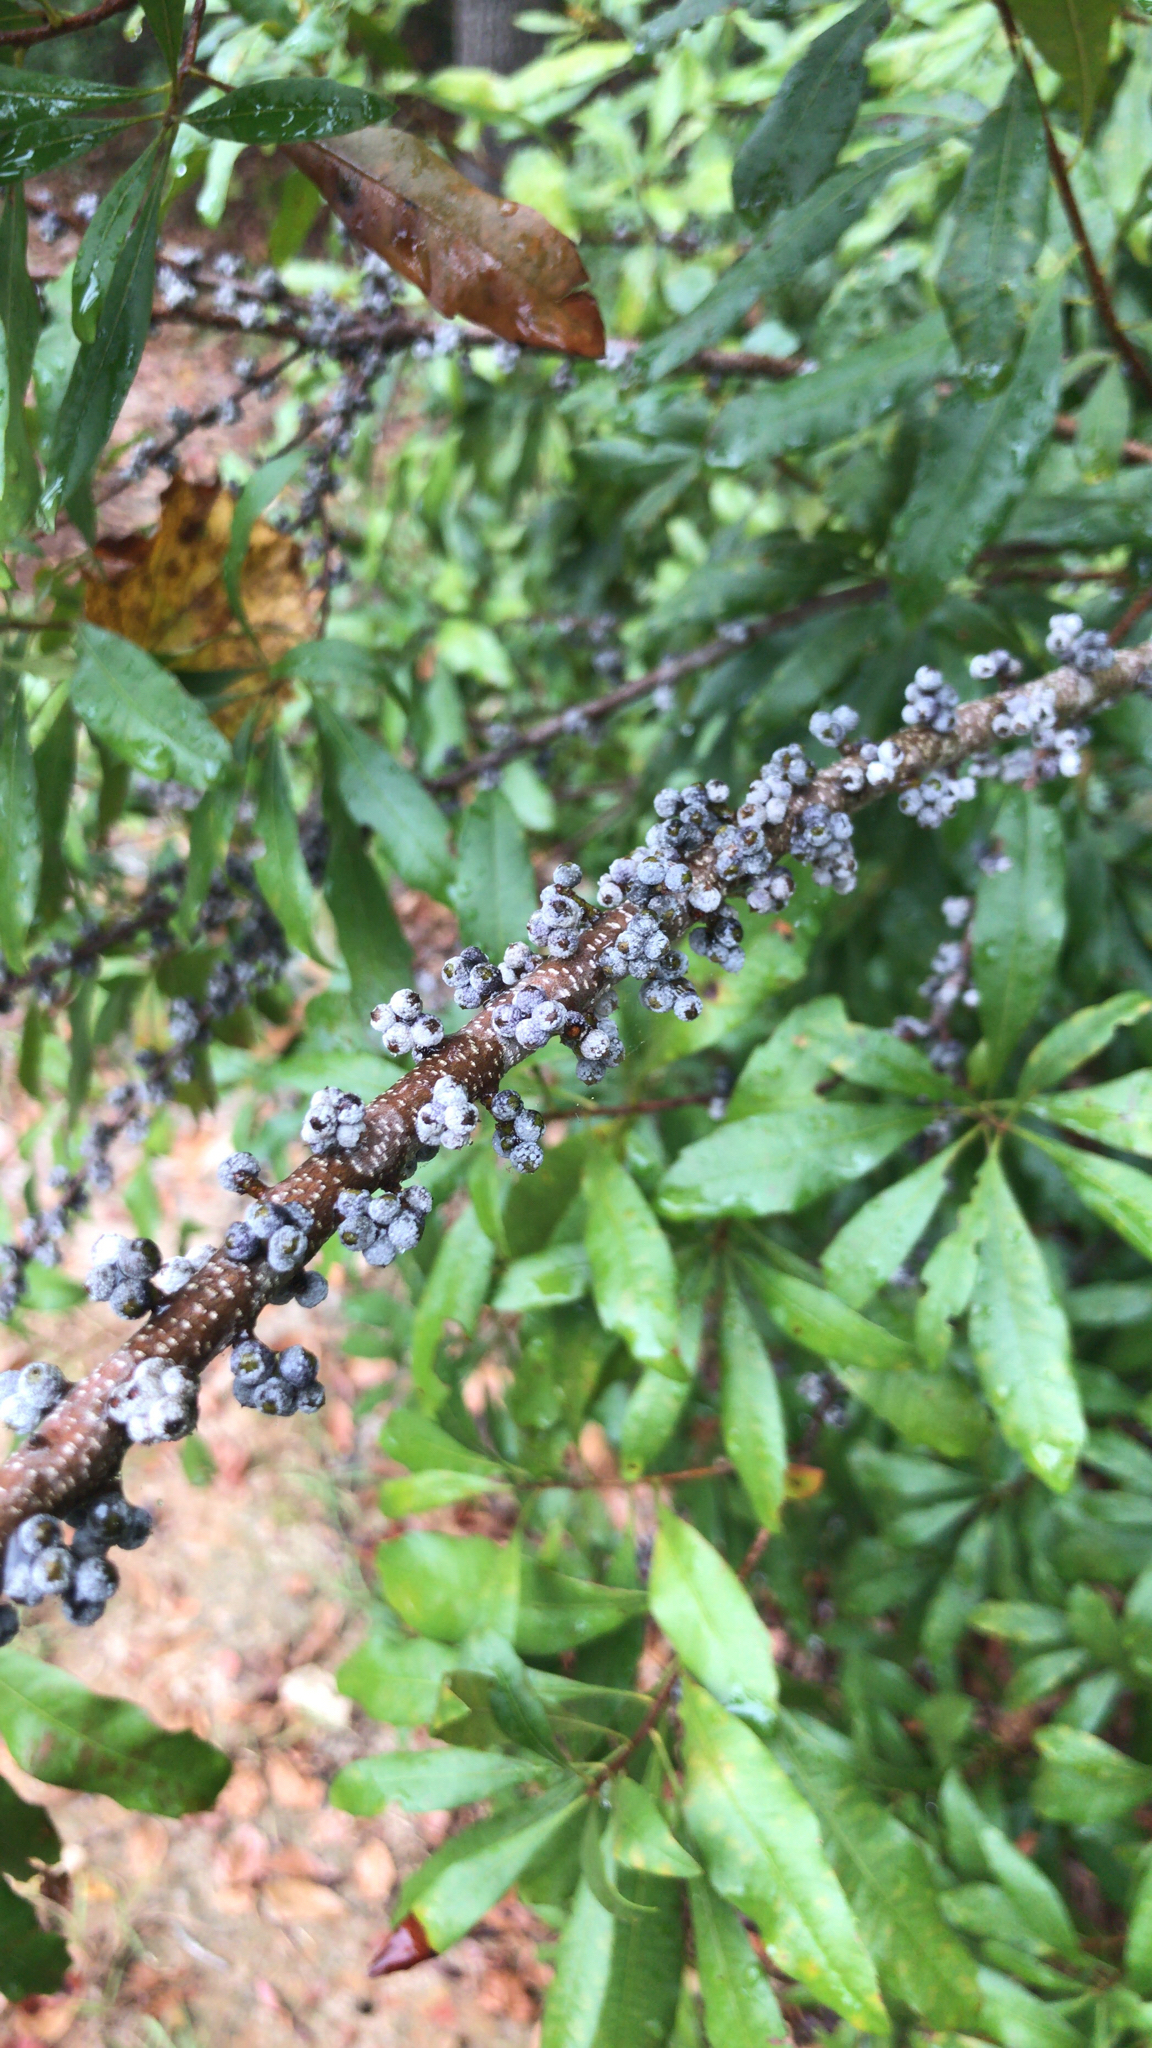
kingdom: Plantae
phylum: Tracheophyta
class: Magnoliopsida
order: Fagales
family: Myricaceae
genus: Morella
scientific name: Morella cerifera
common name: Wax myrtle
